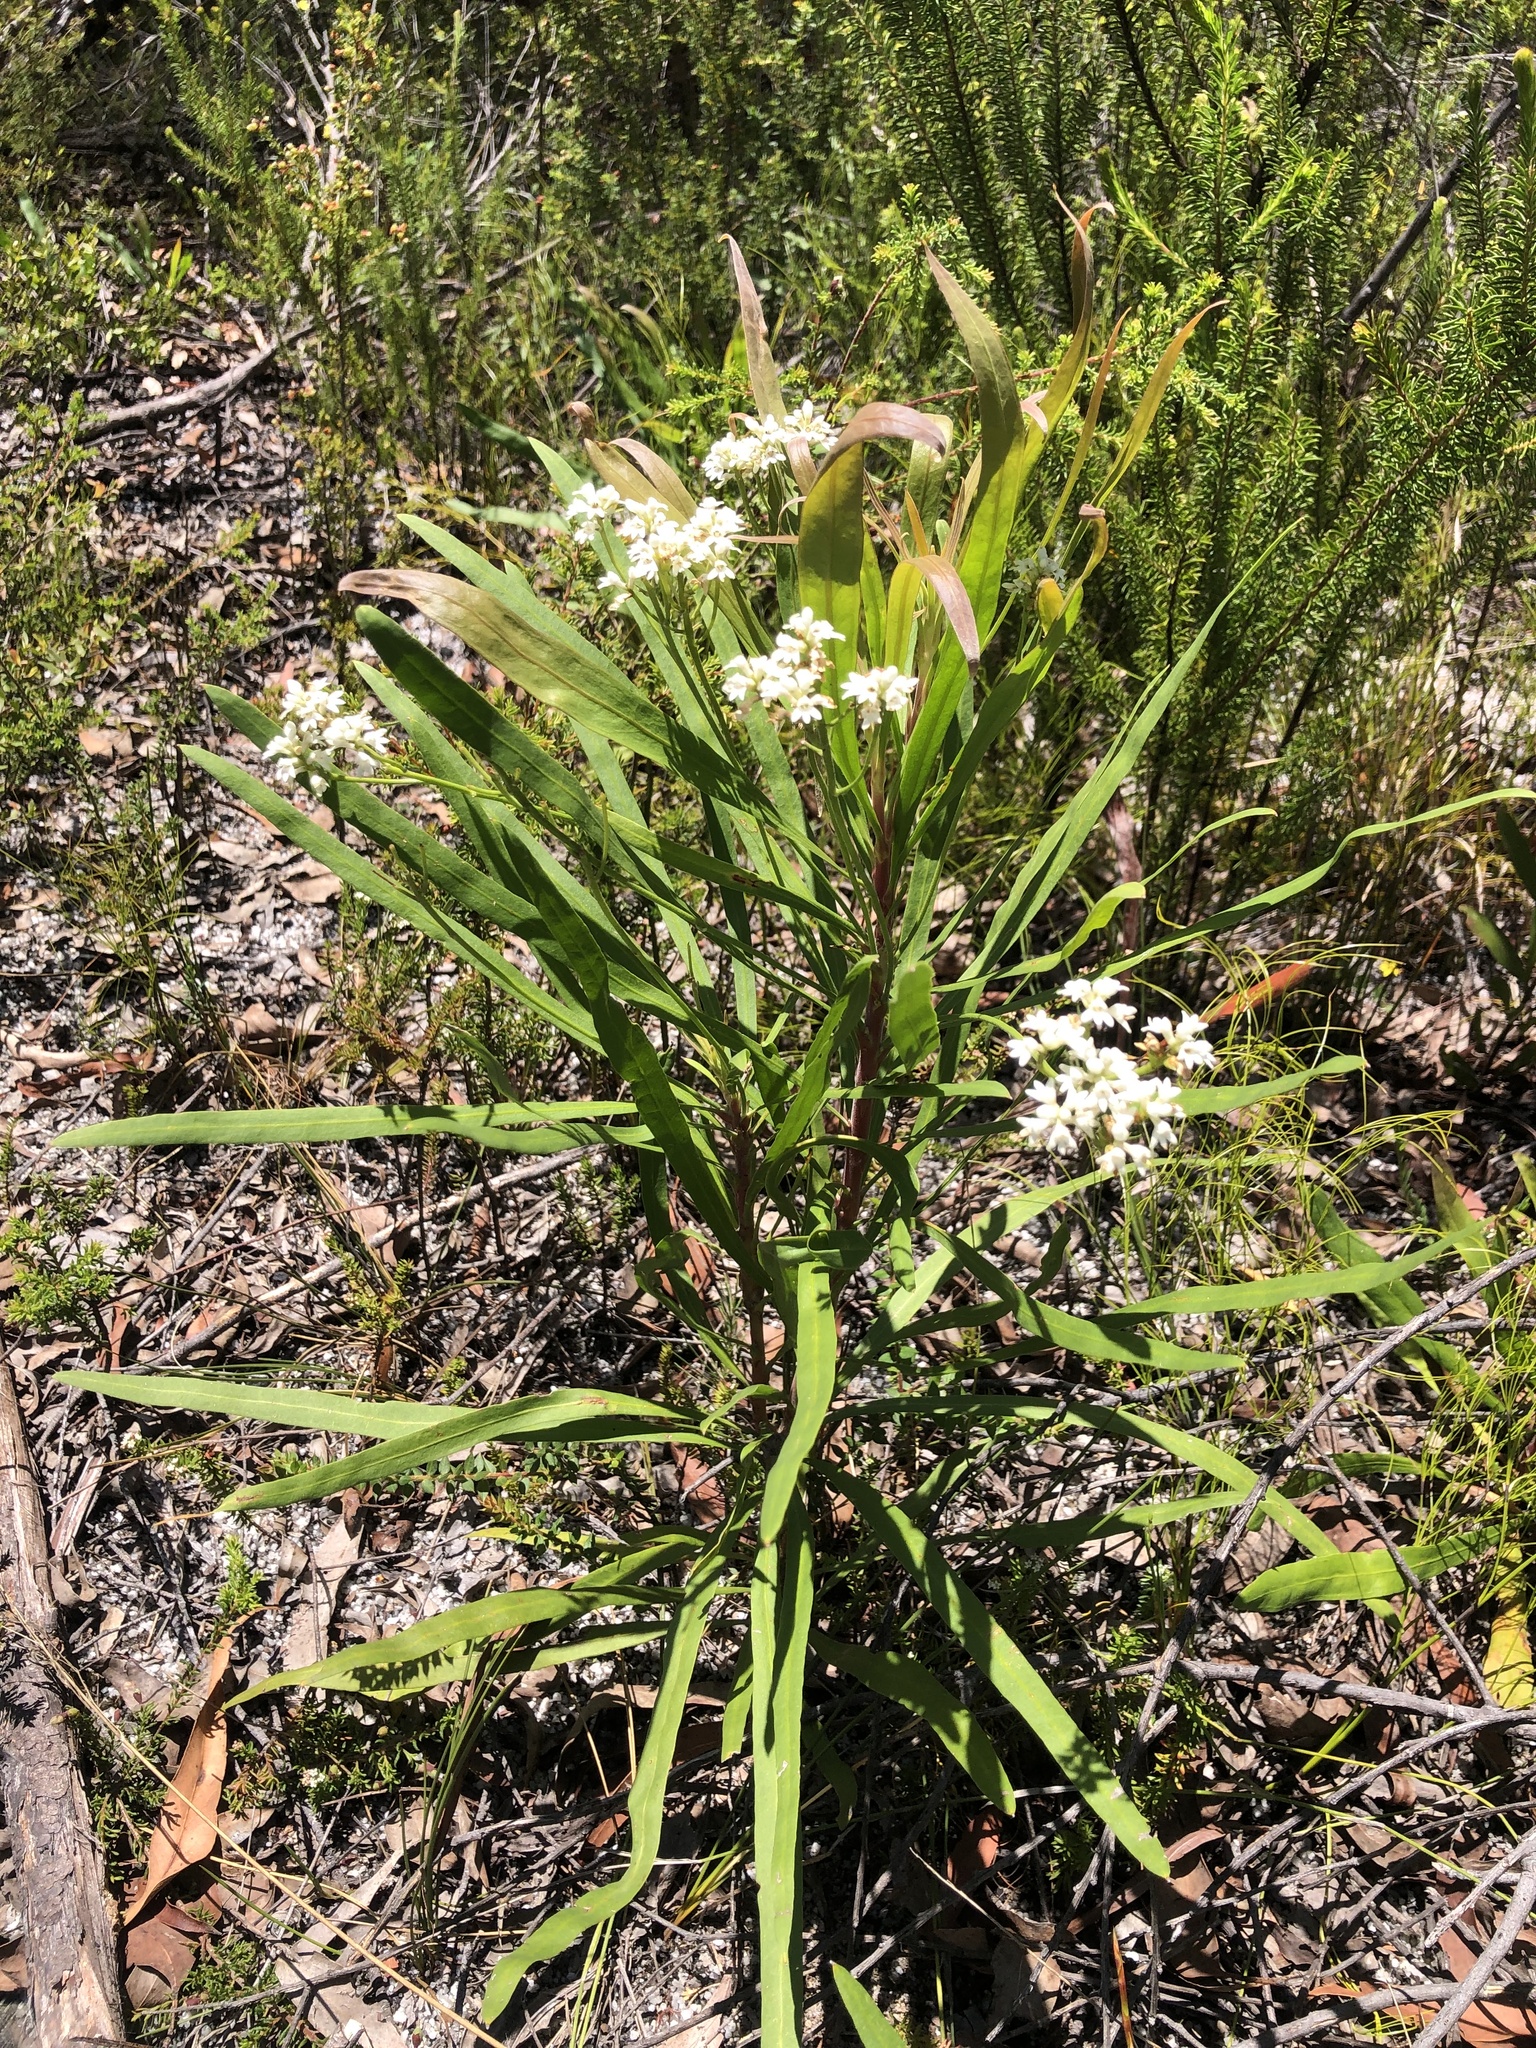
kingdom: Plantae
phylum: Tracheophyta
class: Magnoliopsida
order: Proteales
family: Proteaceae
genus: Conospermum
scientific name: Conospermum burgessiorum
